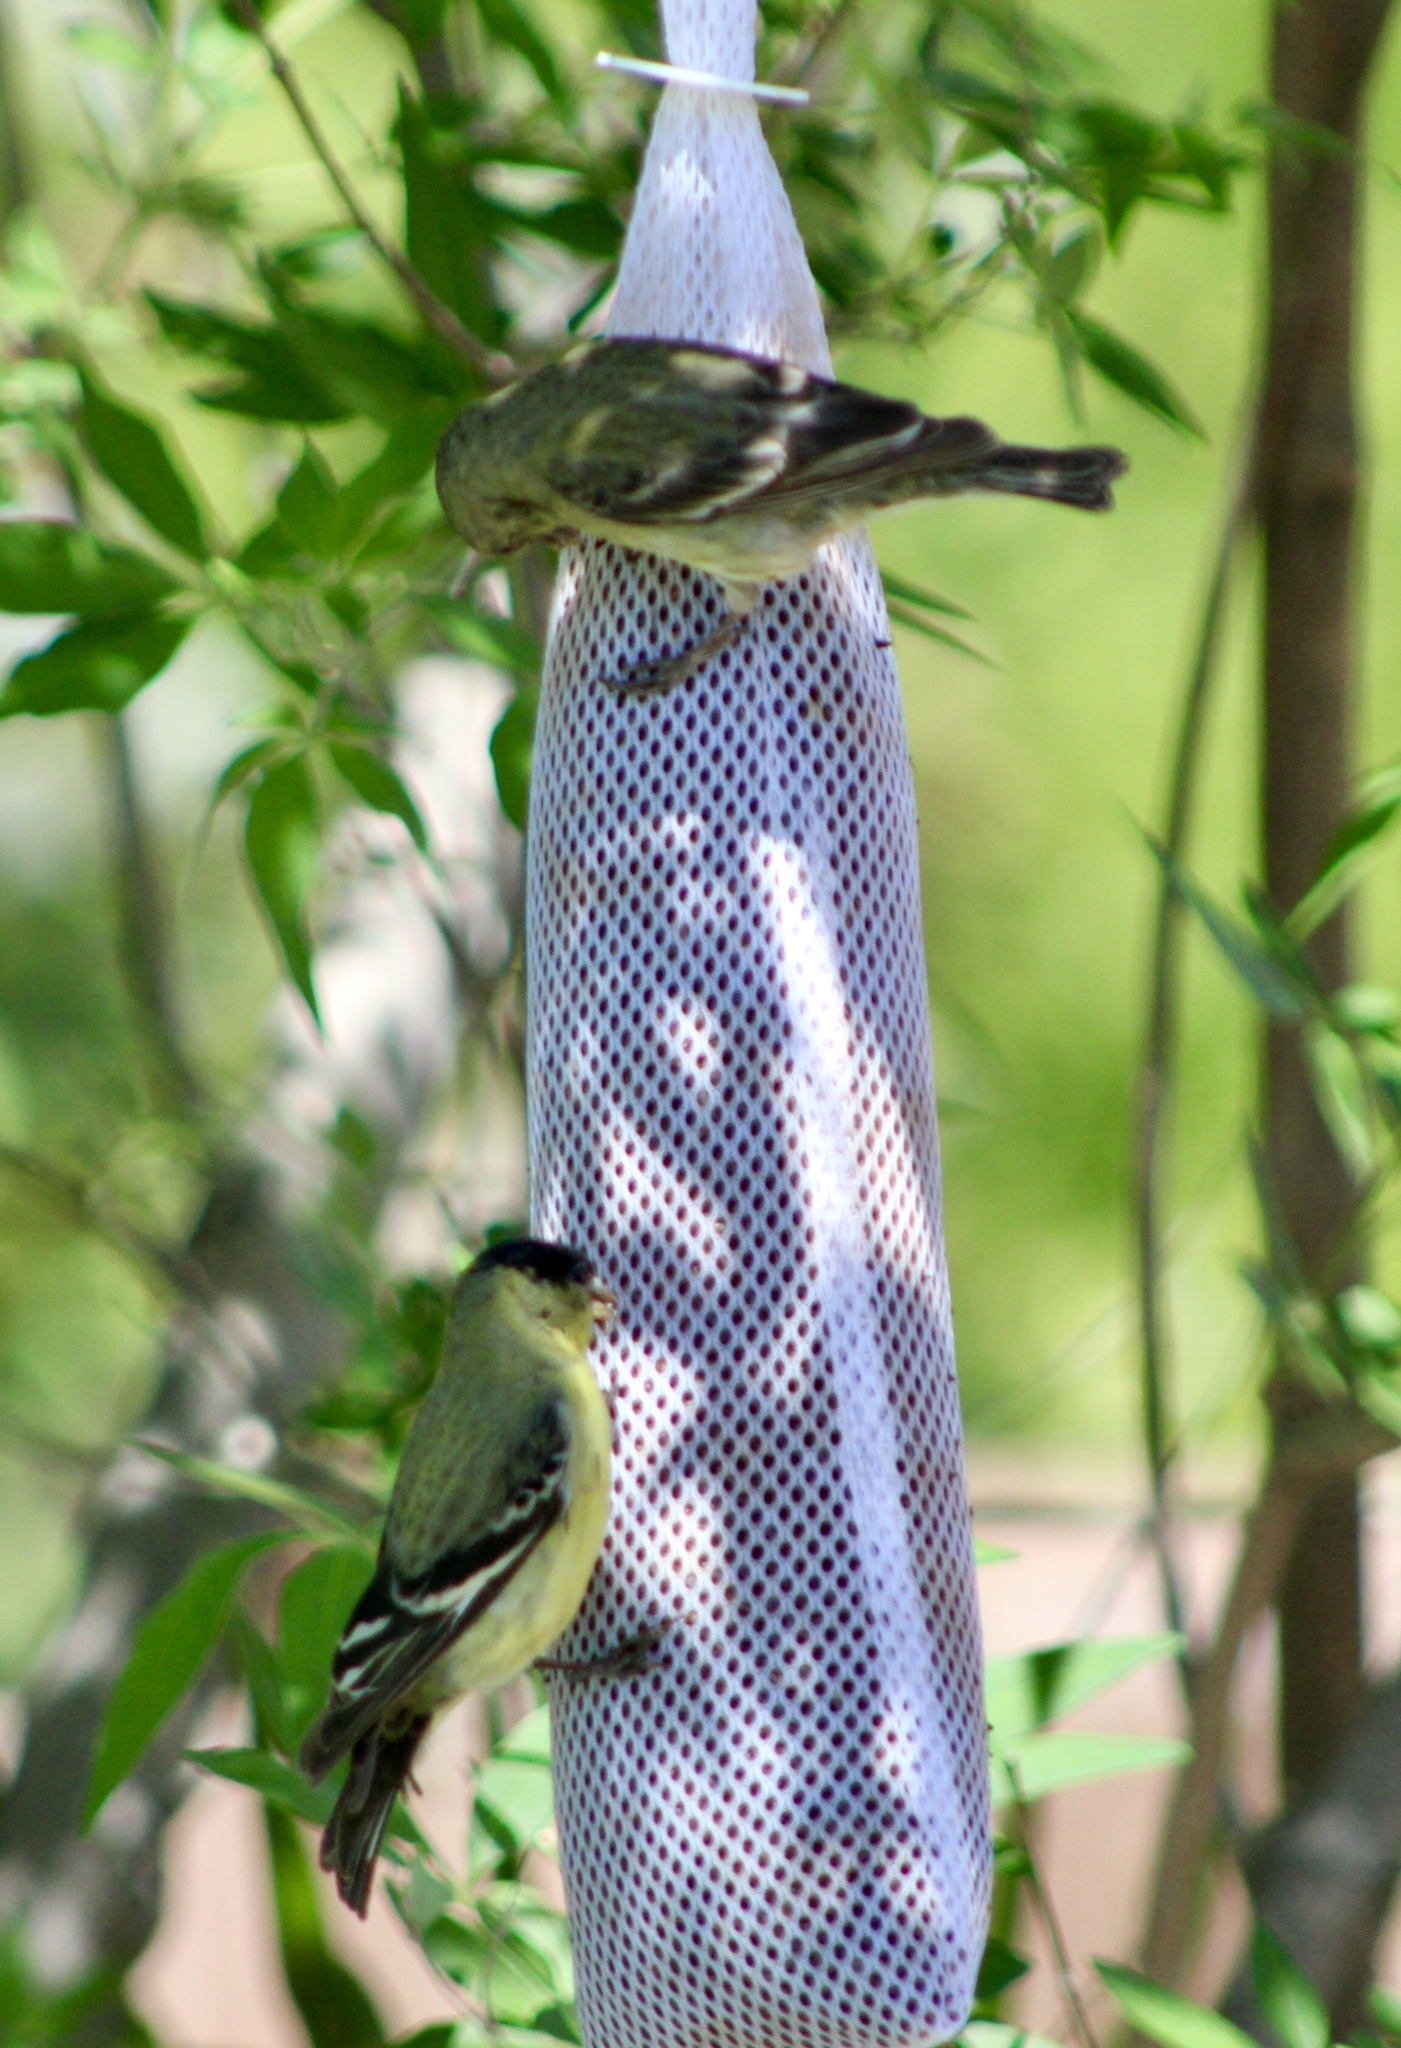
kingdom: Animalia
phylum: Chordata
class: Aves
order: Passeriformes
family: Fringillidae
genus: Spinus
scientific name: Spinus psaltria
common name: Lesser goldfinch
